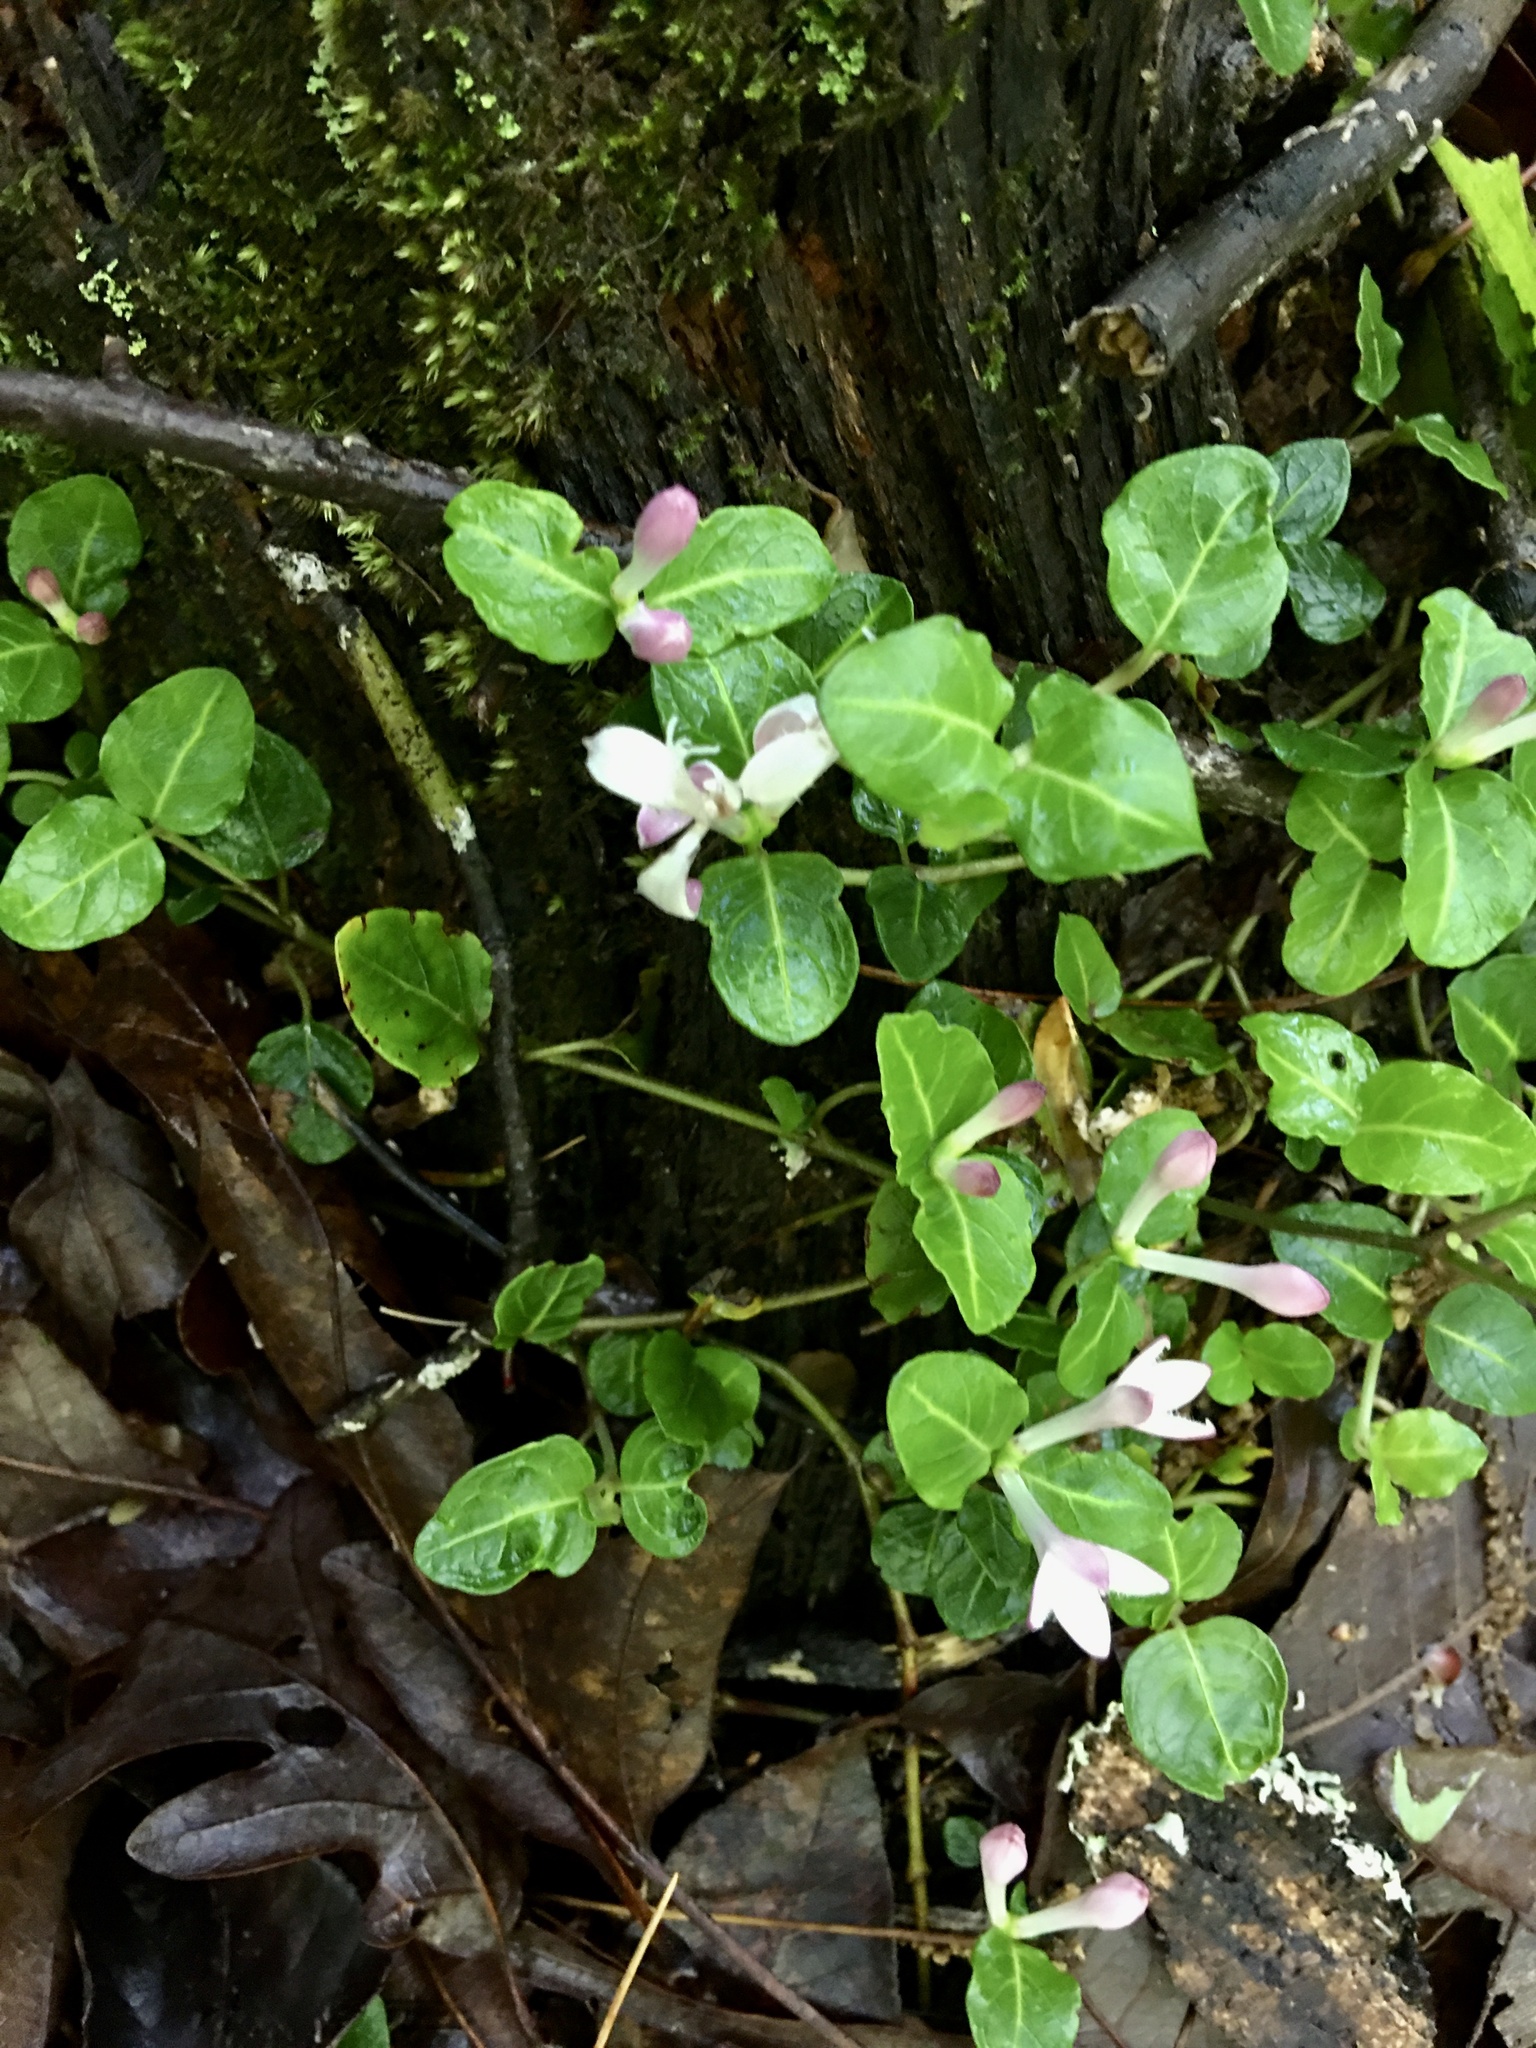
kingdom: Plantae
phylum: Tracheophyta
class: Magnoliopsida
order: Gentianales
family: Rubiaceae
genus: Mitchella
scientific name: Mitchella repens
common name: Partridge-berry
